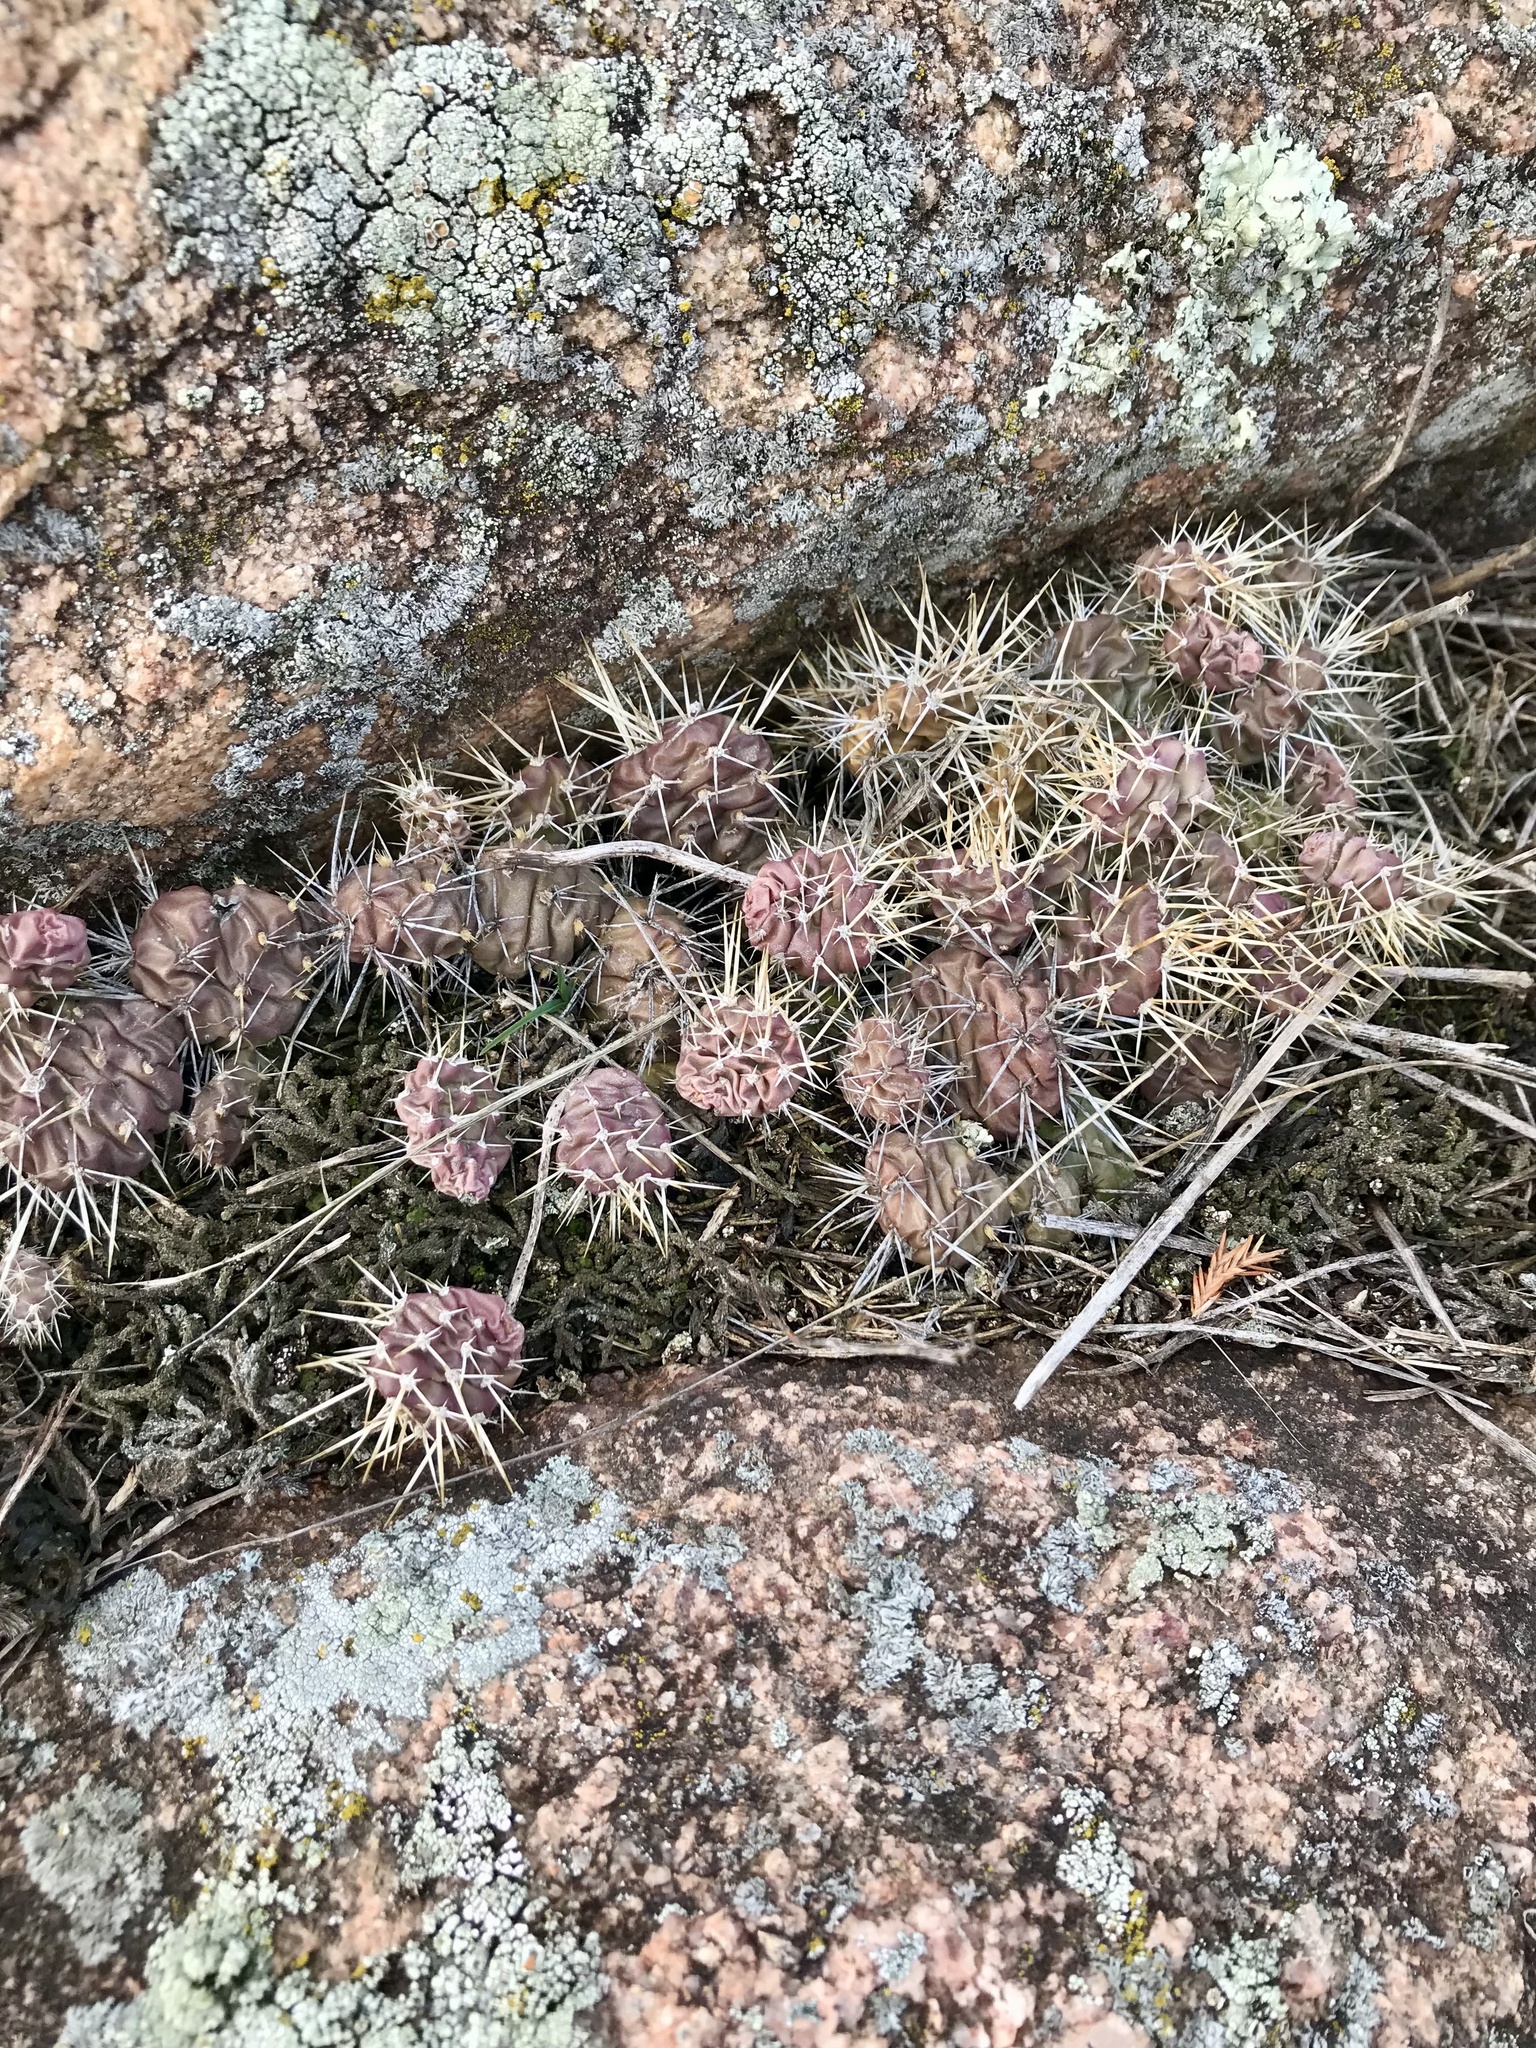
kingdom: Plantae
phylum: Tracheophyta
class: Magnoliopsida
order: Caryophyllales
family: Cactaceae
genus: Opuntia
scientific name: Opuntia fragilis
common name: Brittle cactus
